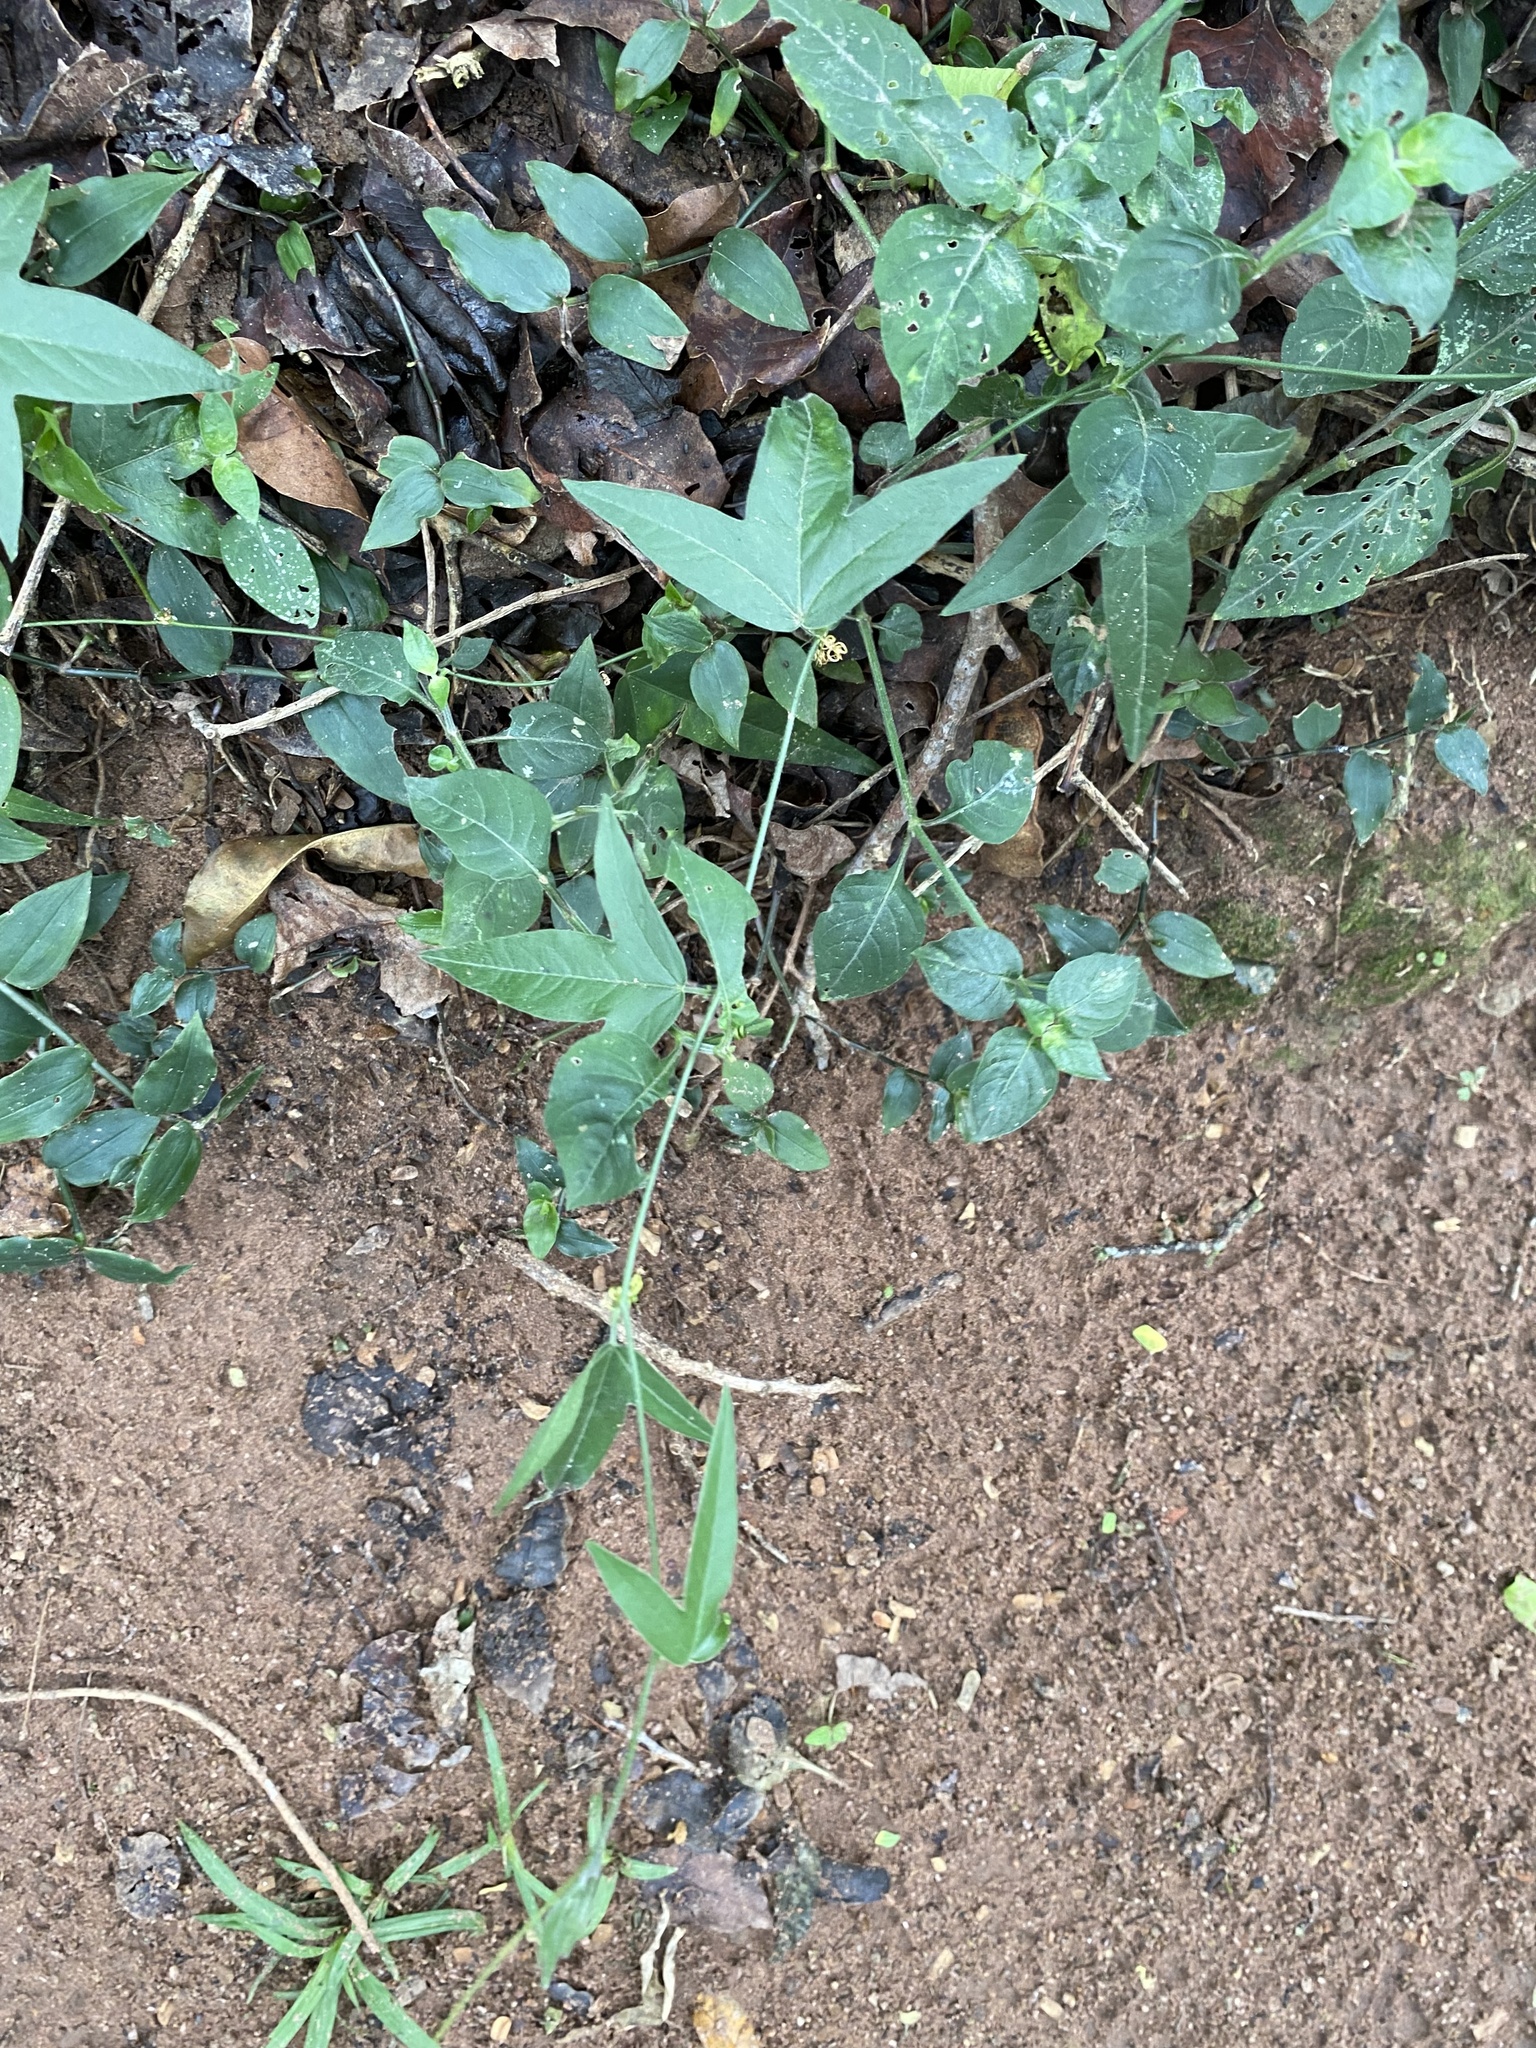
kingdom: Plantae
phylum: Tracheophyta
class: Magnoliopsida
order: Malpighiales
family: Passifloraceae
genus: Passiflora
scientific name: Passiflora suberosa
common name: Wild passionfruit
